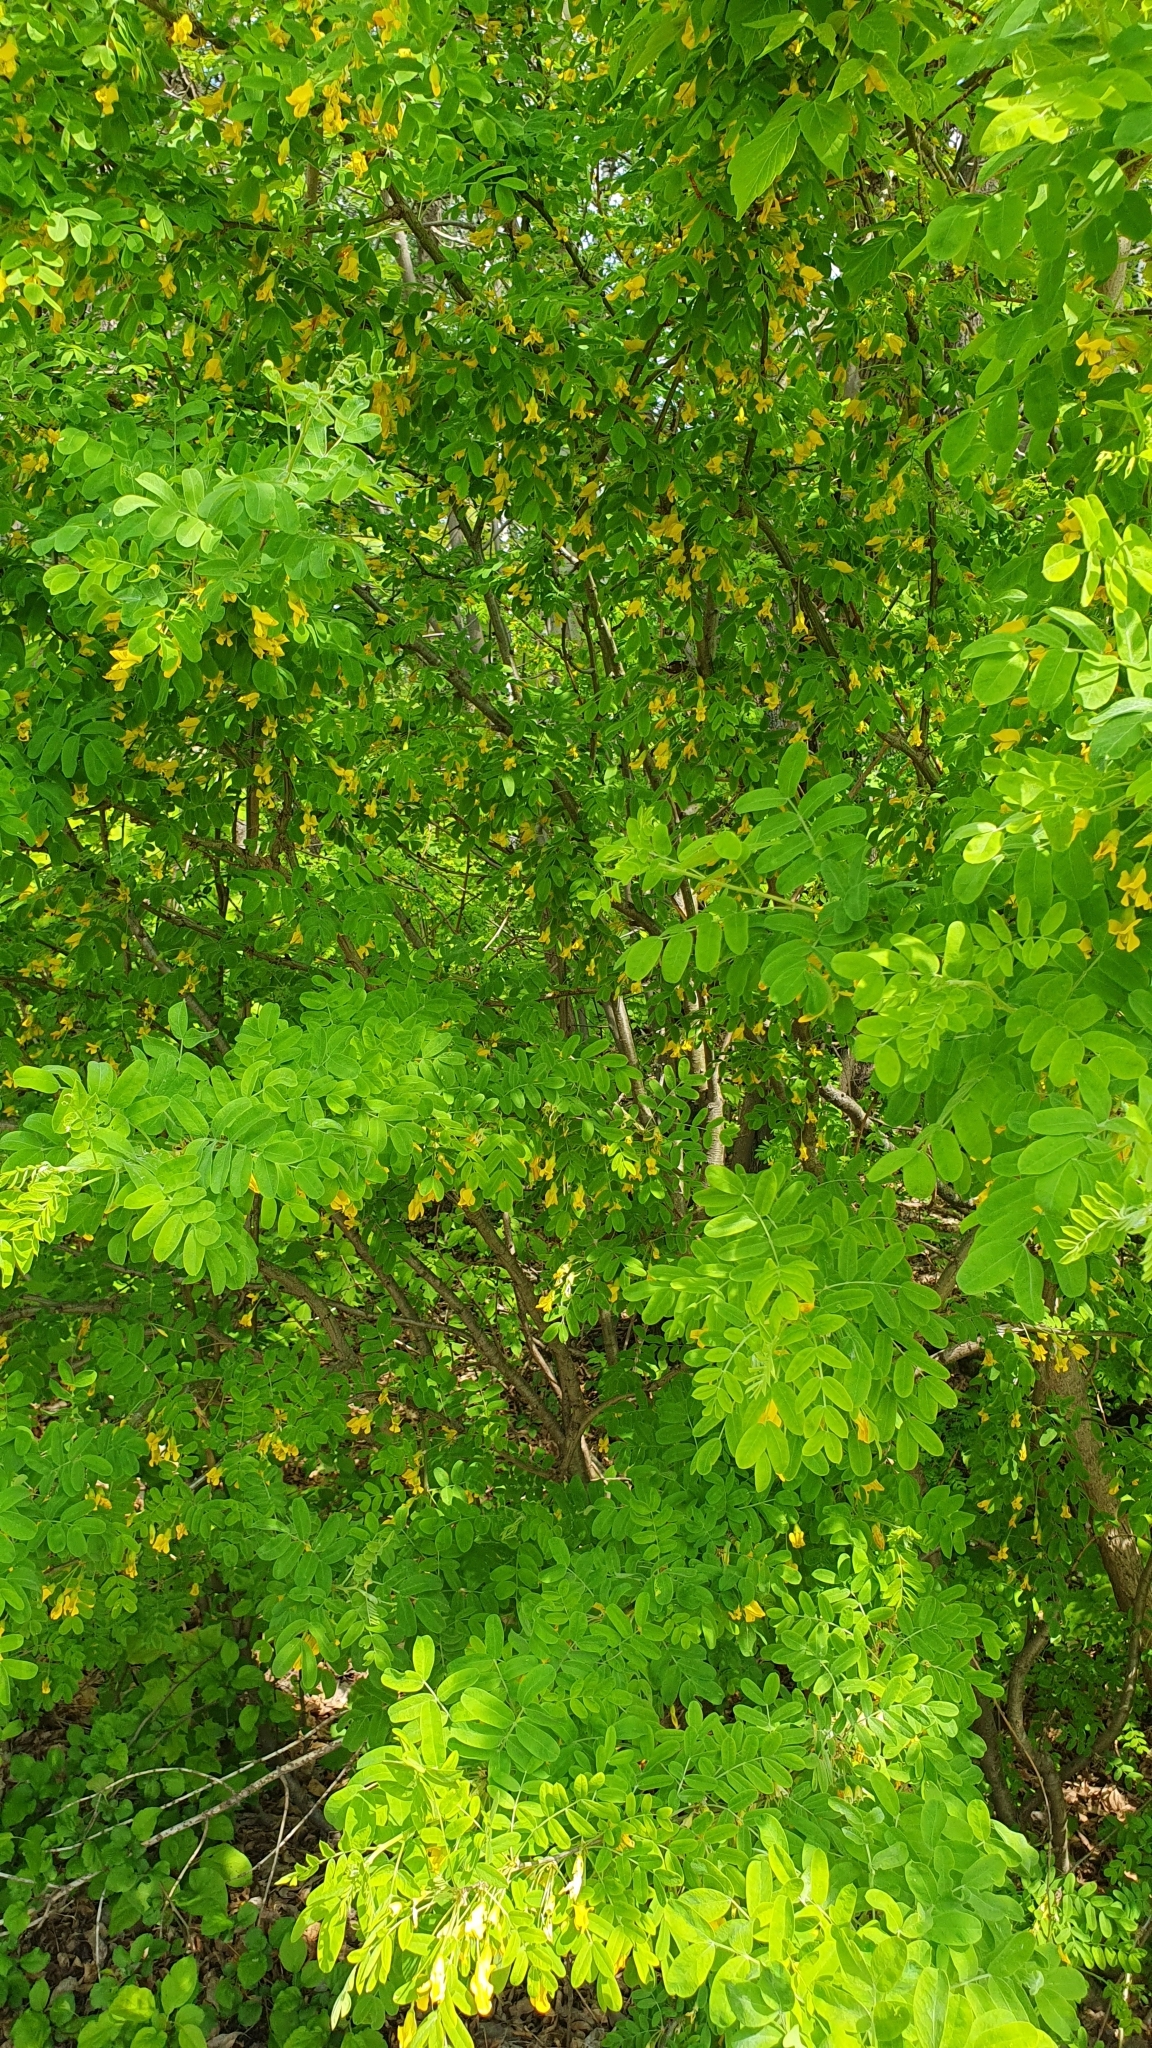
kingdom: Plantae
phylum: Tracheophyta
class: Magnoliopsida
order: Fabales
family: Fabaceae
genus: Caragana
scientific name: Caragana arborescens
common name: Siberian peashrub
